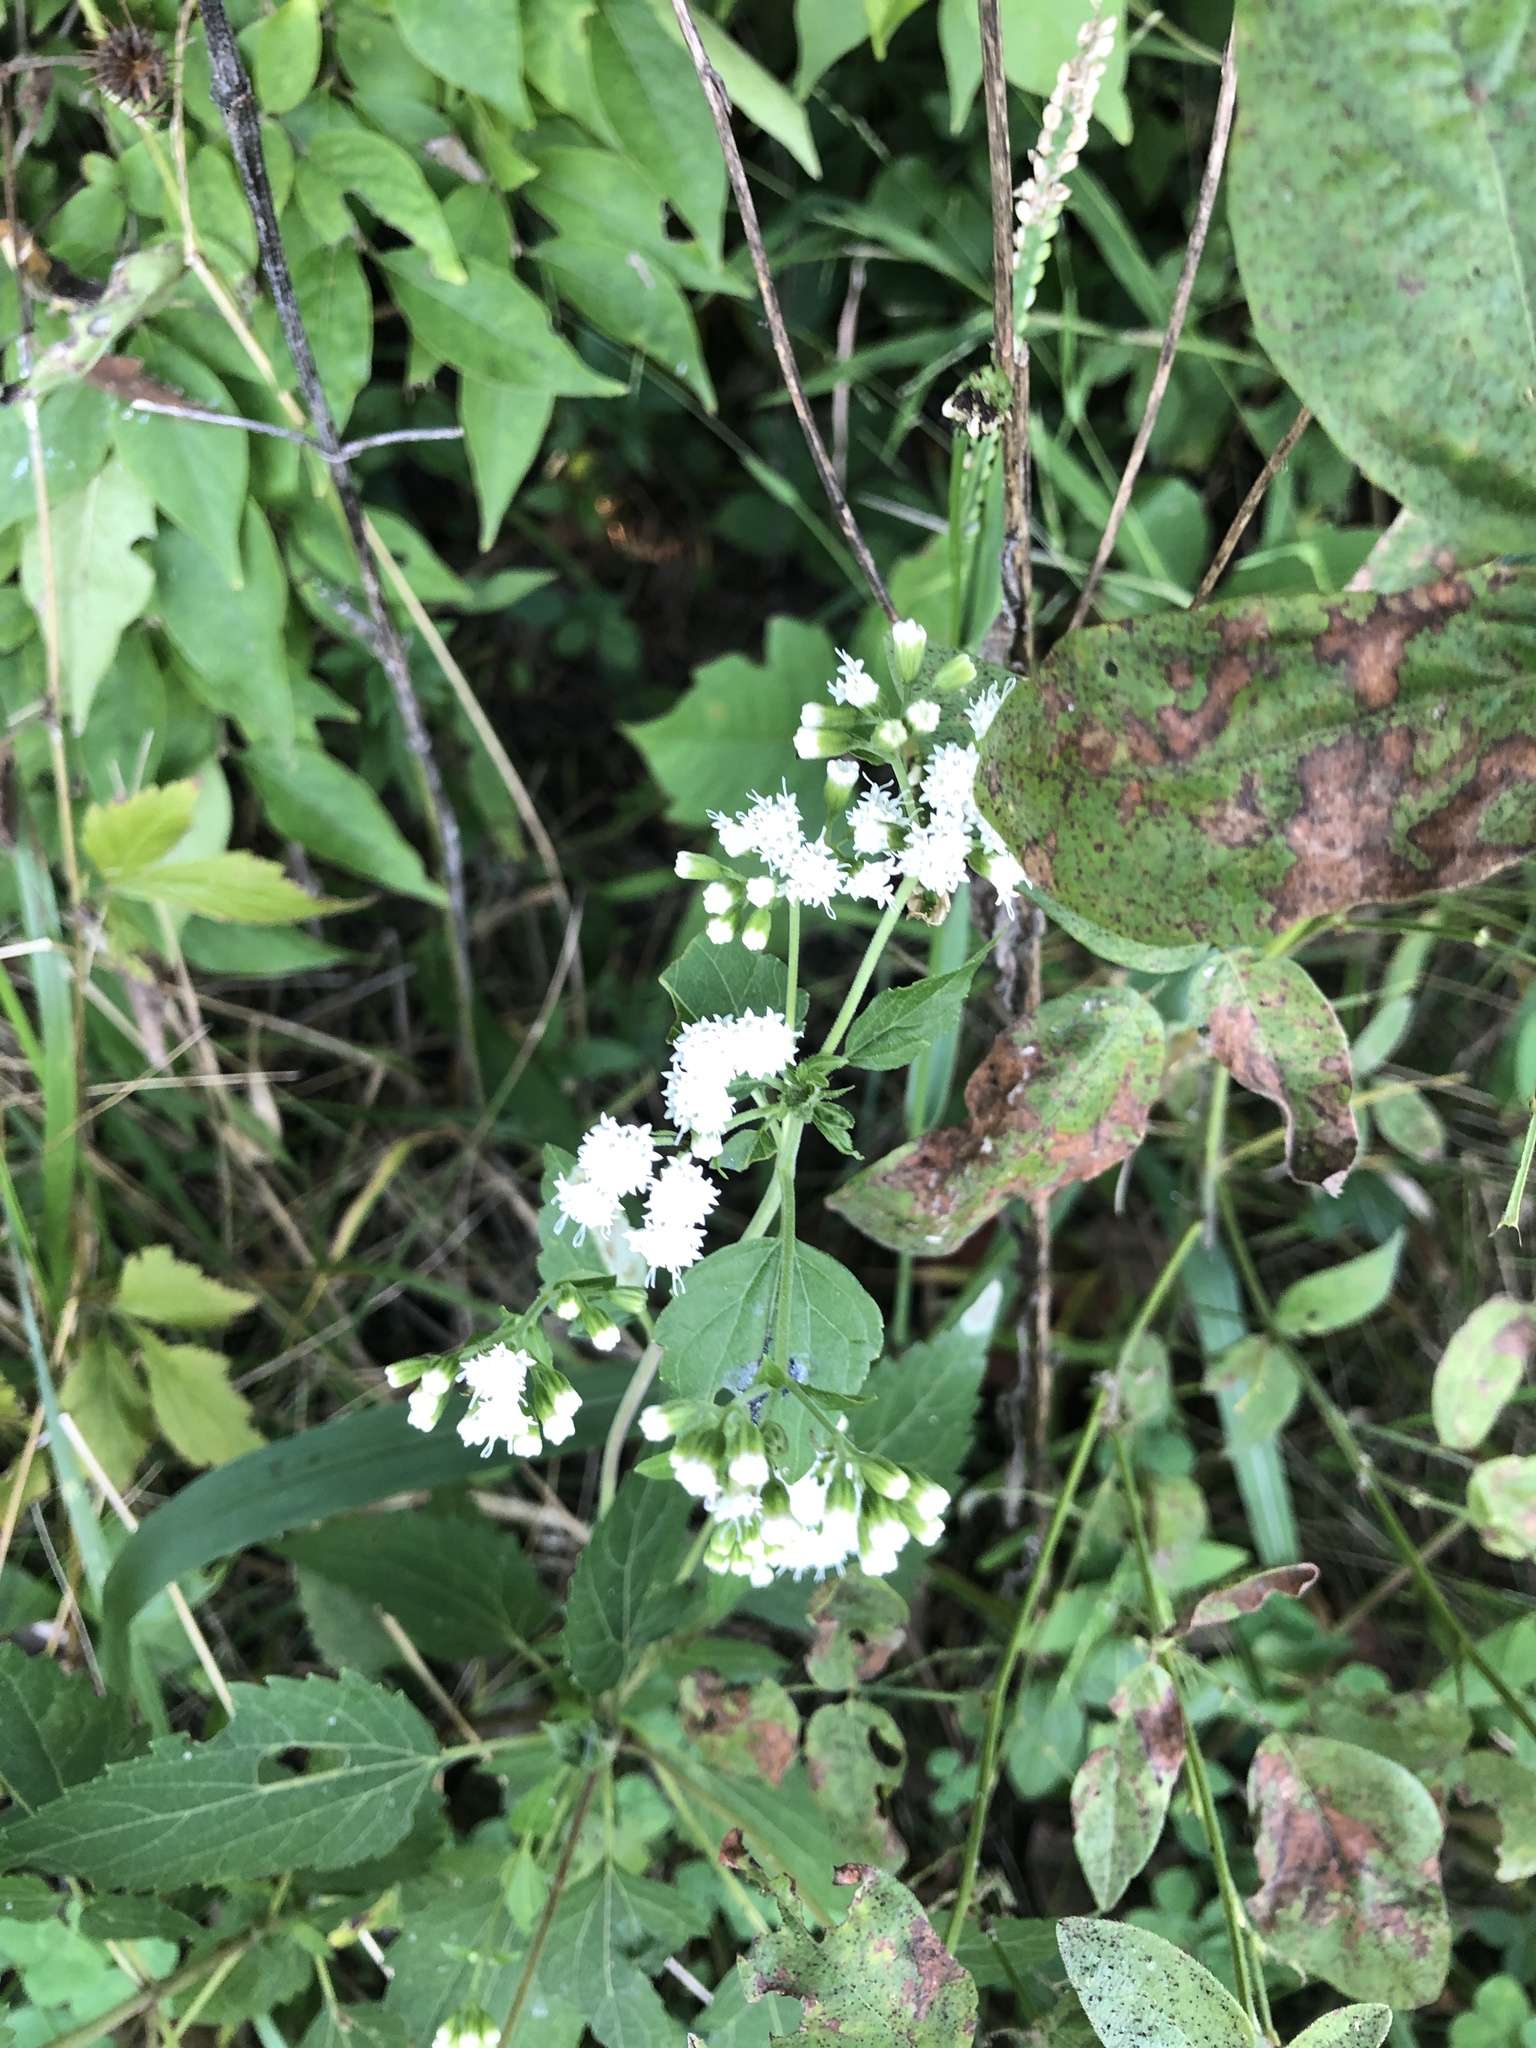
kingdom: Plantae
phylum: Tracheophyta
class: Magnoliopsida
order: Asterales
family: Asteraceae
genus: Ageratina
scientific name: Ageratina altissima
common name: White snakeroot
